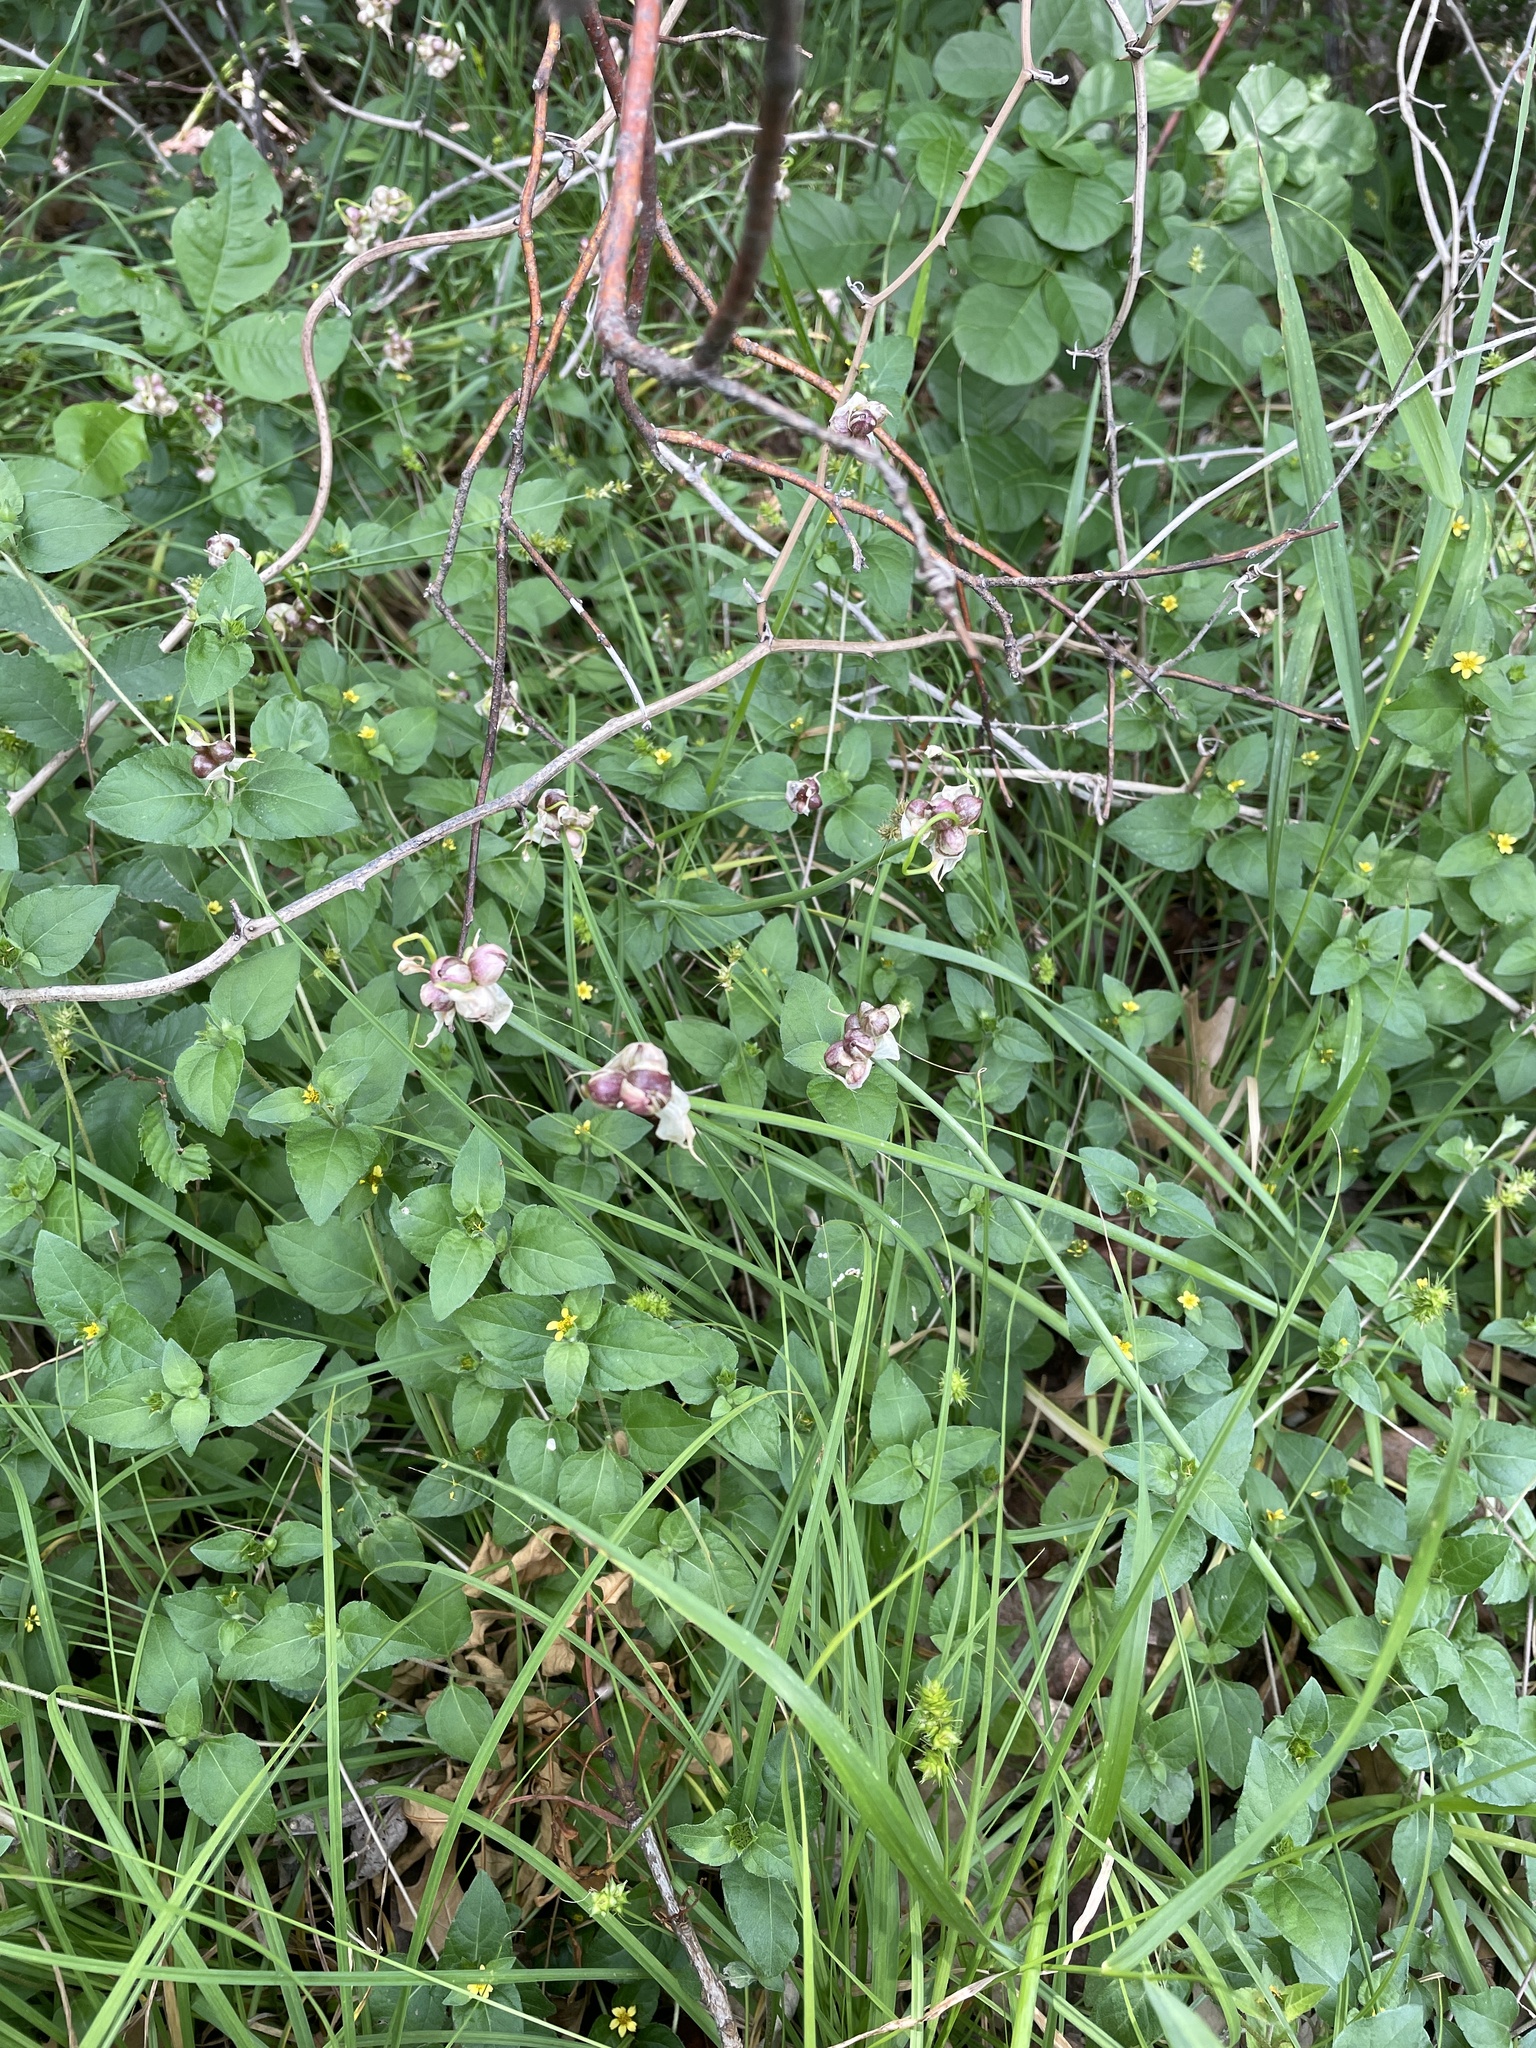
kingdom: Plantae
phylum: Tracheophyta
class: Liliopsida
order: Asparagales
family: Amaryllidaceae
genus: Allium
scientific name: Allium canadense
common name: Meadow garlic
